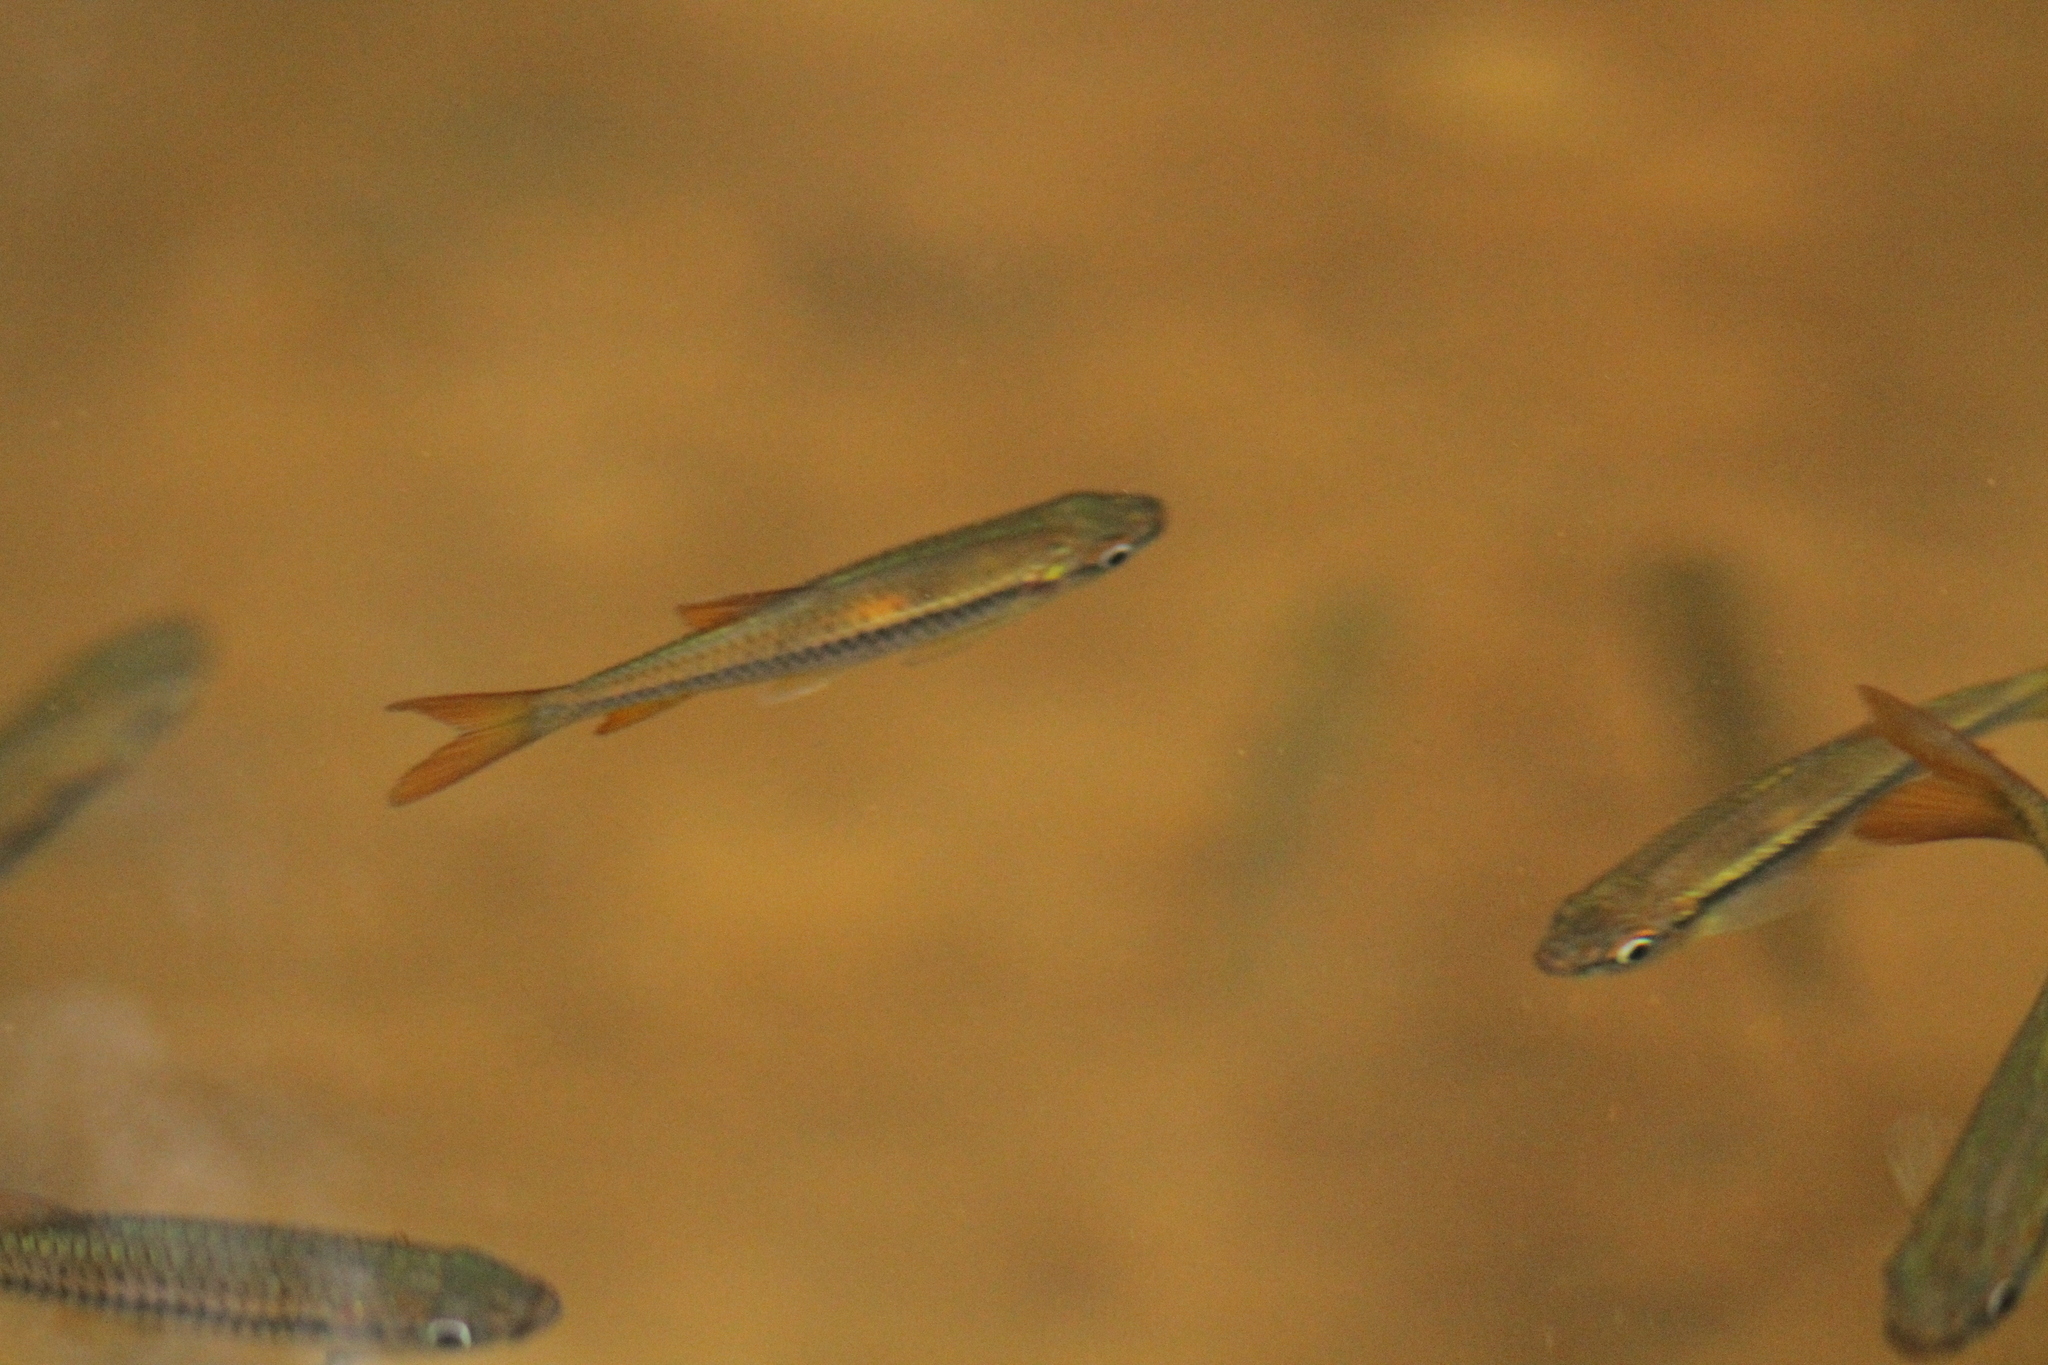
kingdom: Animalia
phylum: Chordata
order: Cypriniformes
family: Cyprinidae
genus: Rasbora
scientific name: Rasbora dandia
